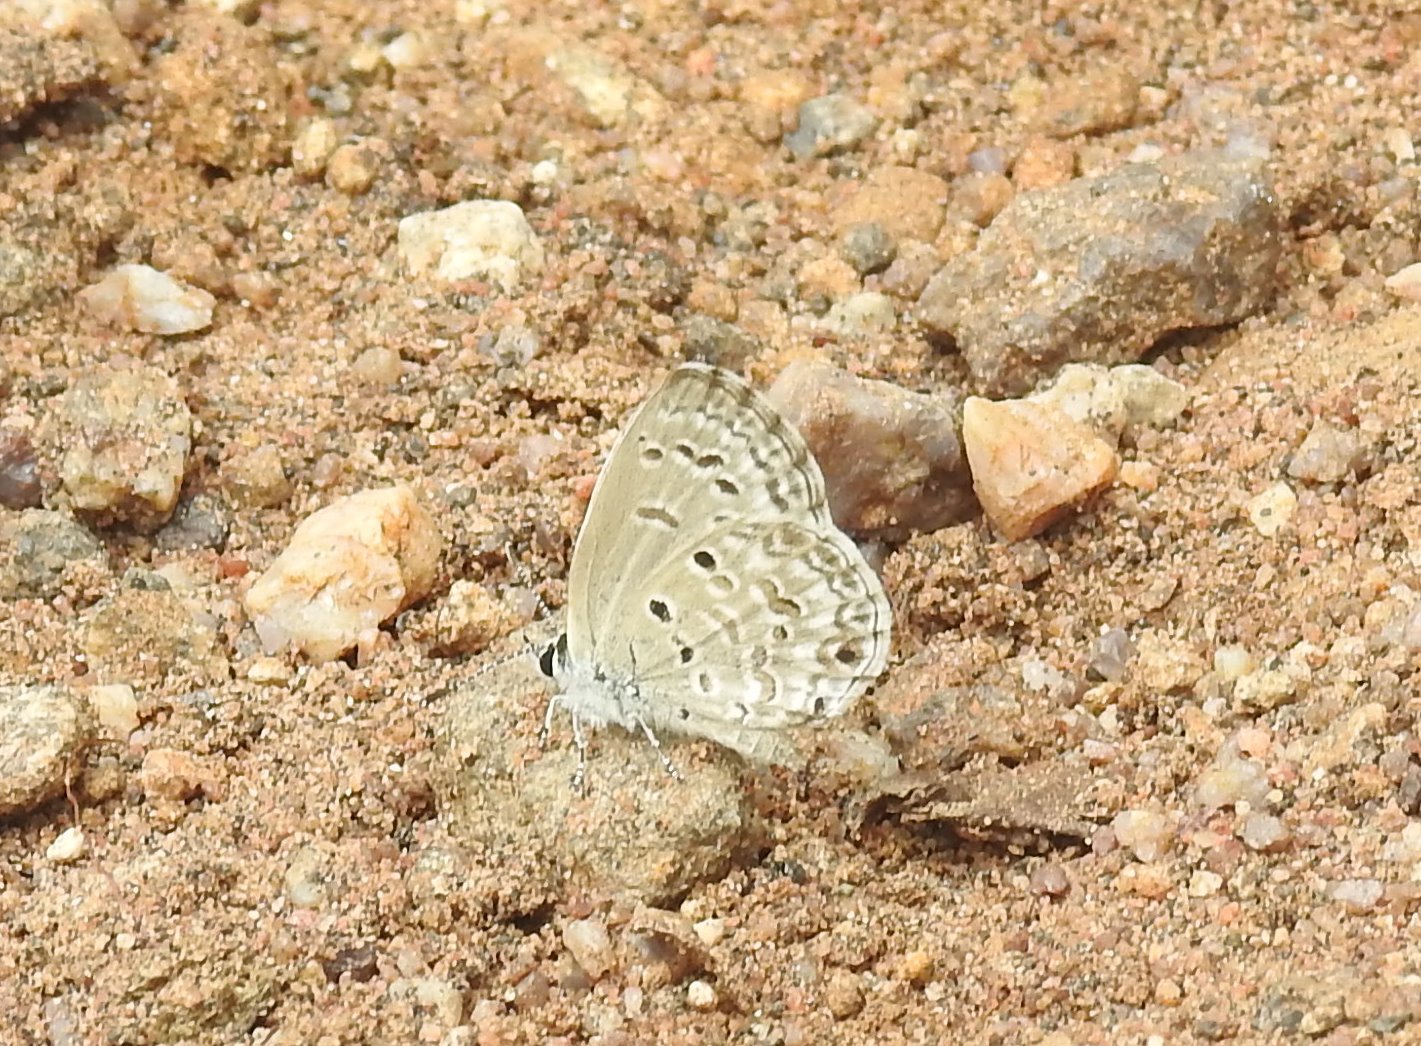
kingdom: Animalia
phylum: Arthropoda
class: Insecta
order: Lepidoptera
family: Lycaenidae
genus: Chilades
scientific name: Chilades laius
